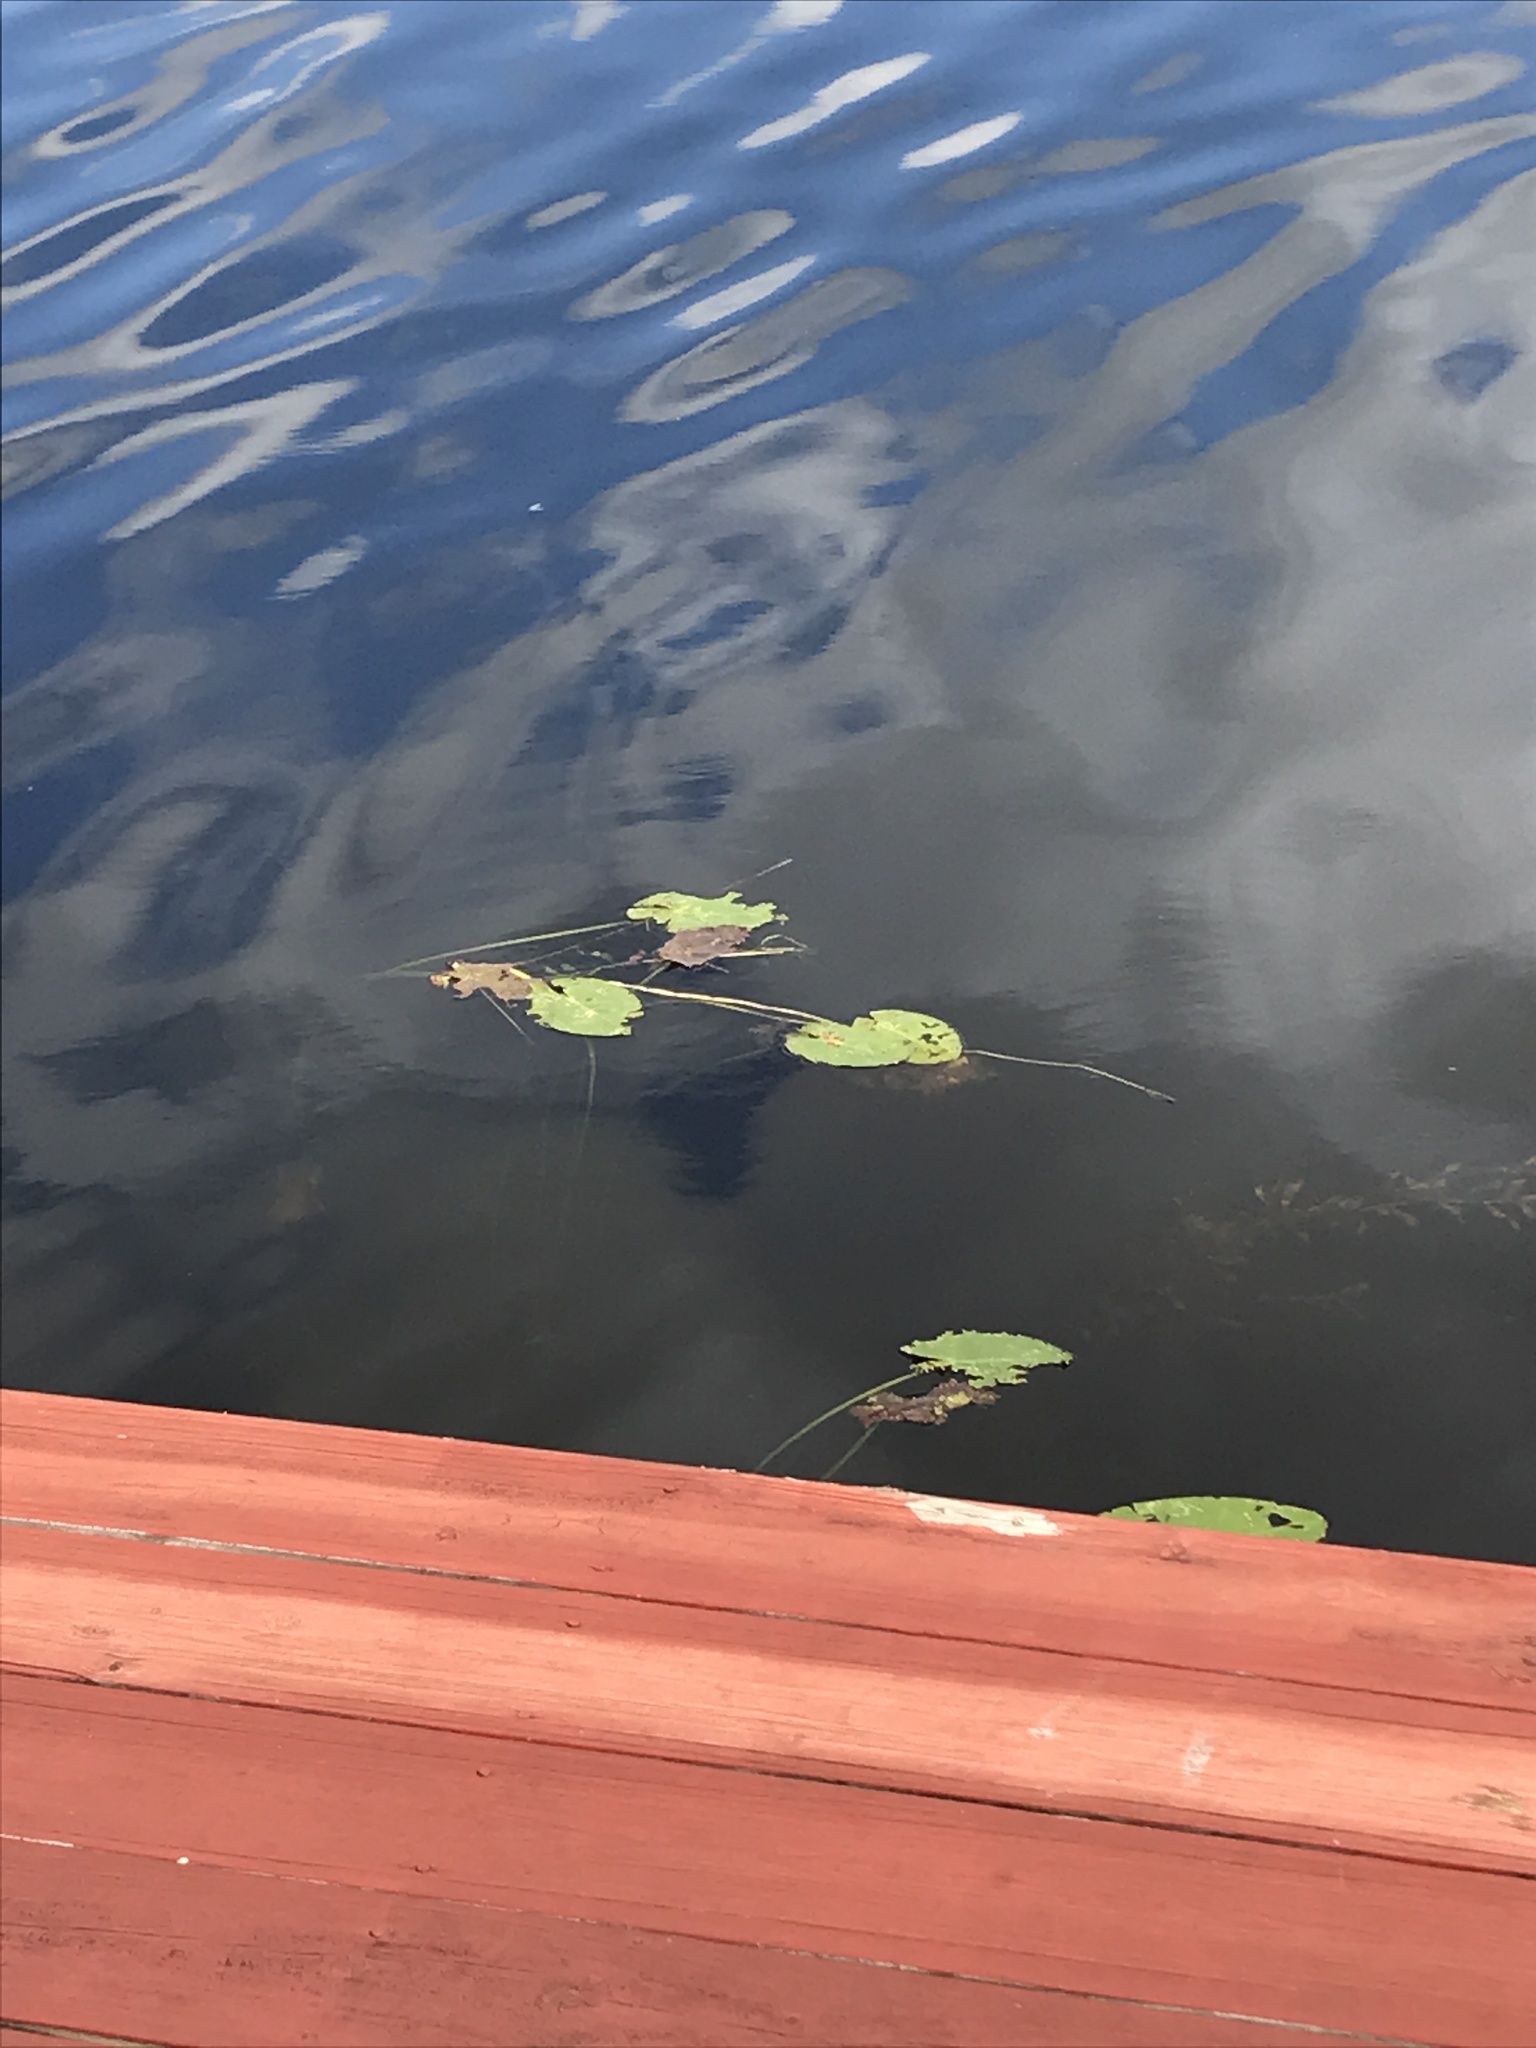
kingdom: Plantae
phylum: Tracheophyta
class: Magnoliopsida
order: Nymphaeales
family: Nymphaeaceae
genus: Nuphar
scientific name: Nuphar advena
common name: Spatter-dock
